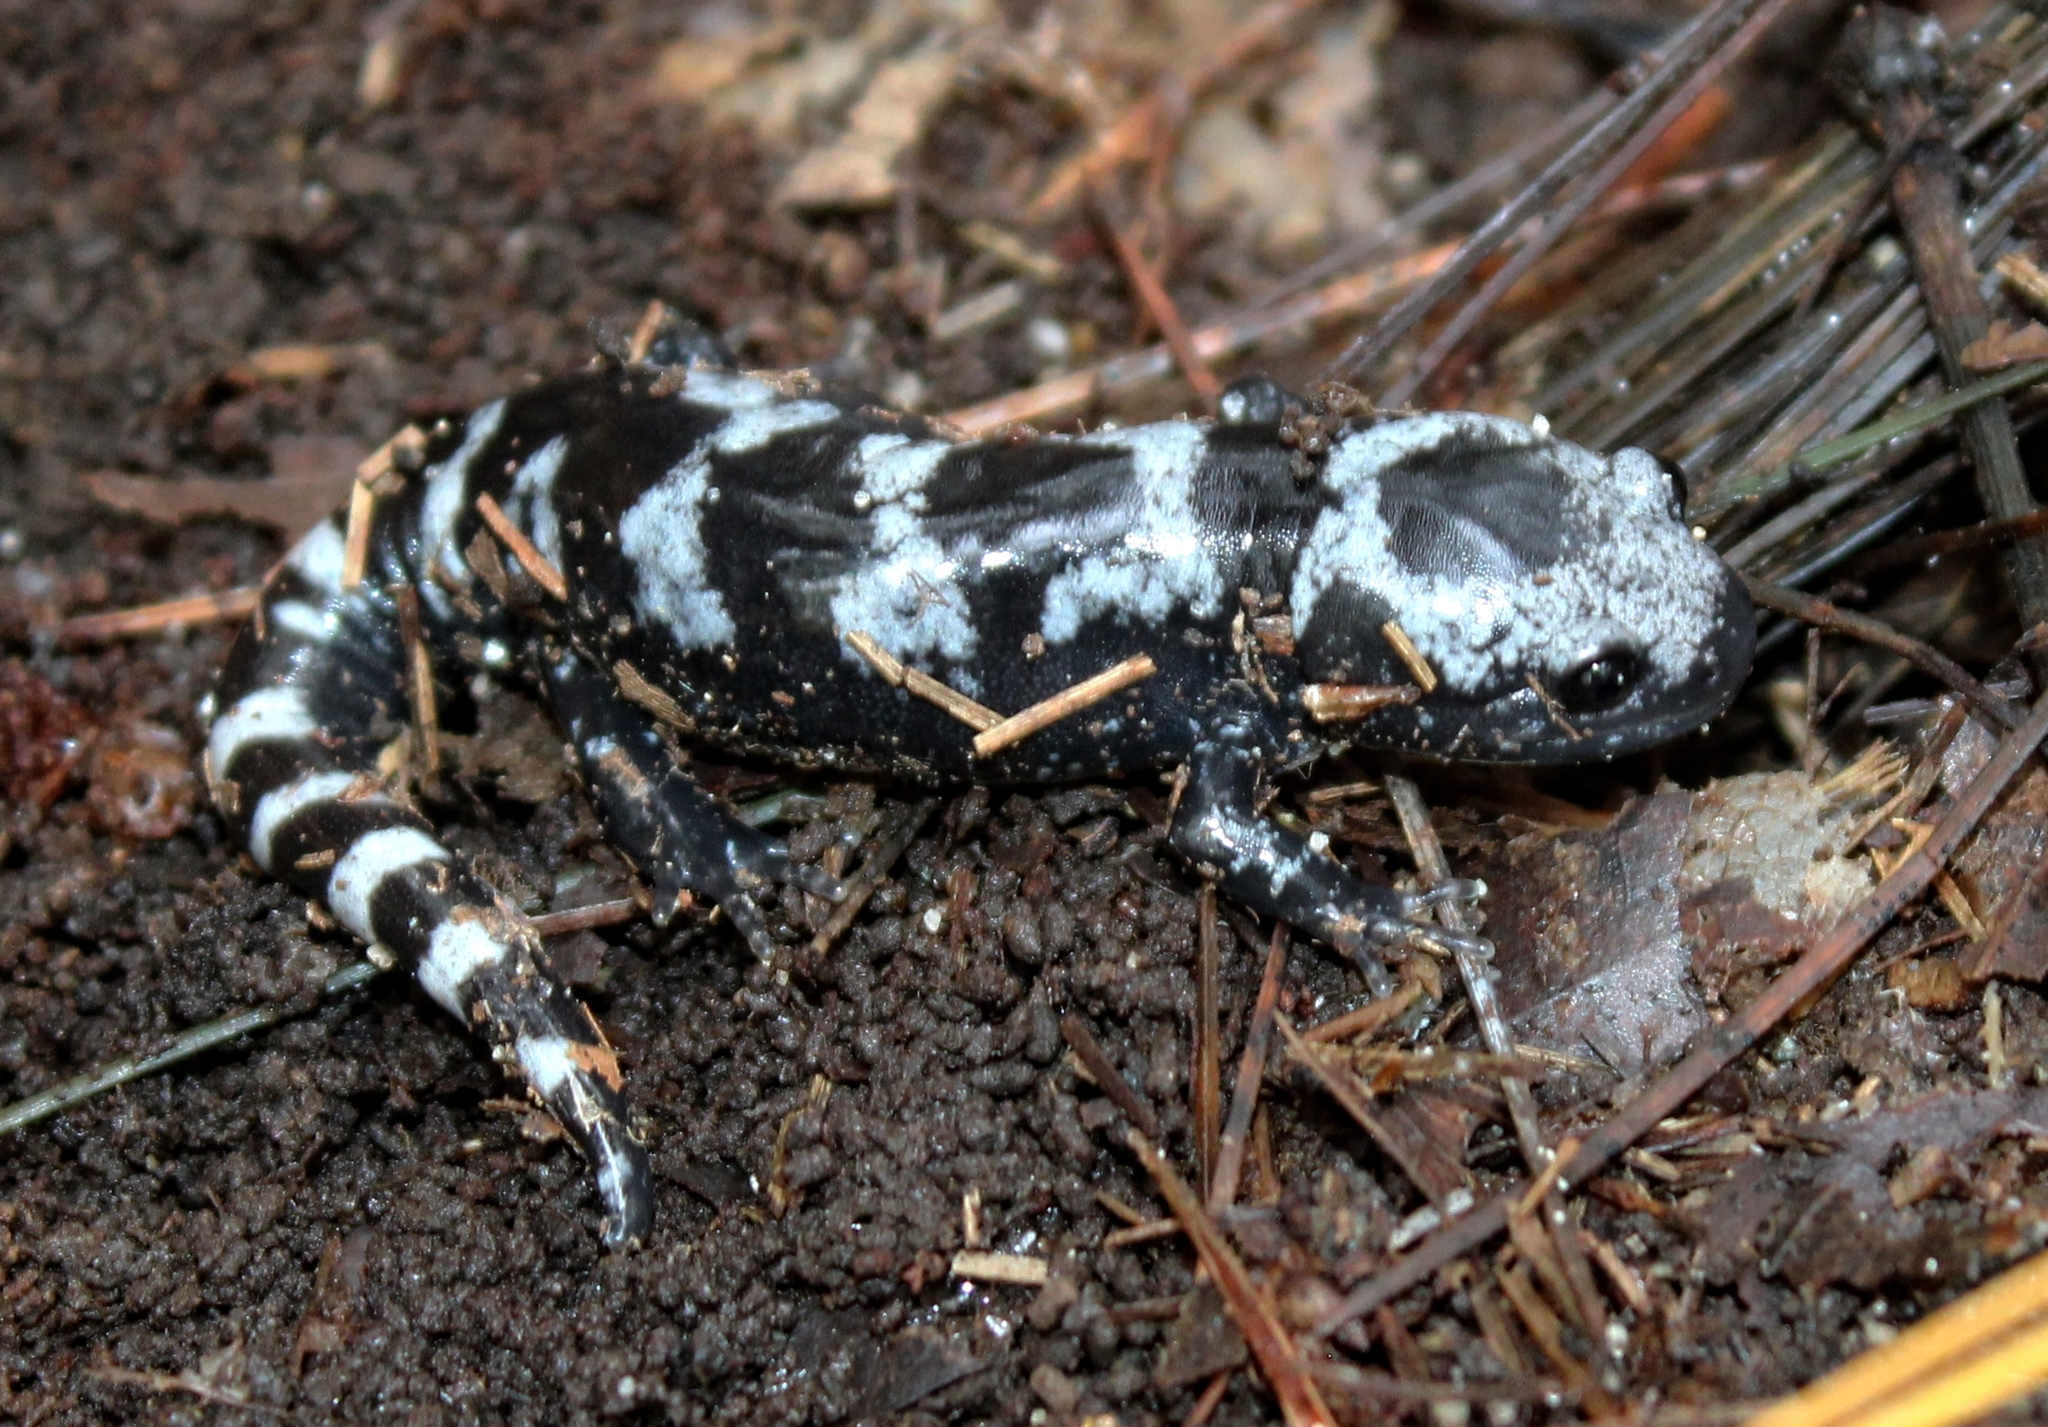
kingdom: Animalia
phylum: Chordata
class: Amphibia
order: Caudata
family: Ambystomatidae
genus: Ambystoma
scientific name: Ambystoma opacum
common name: Marbled salamander
